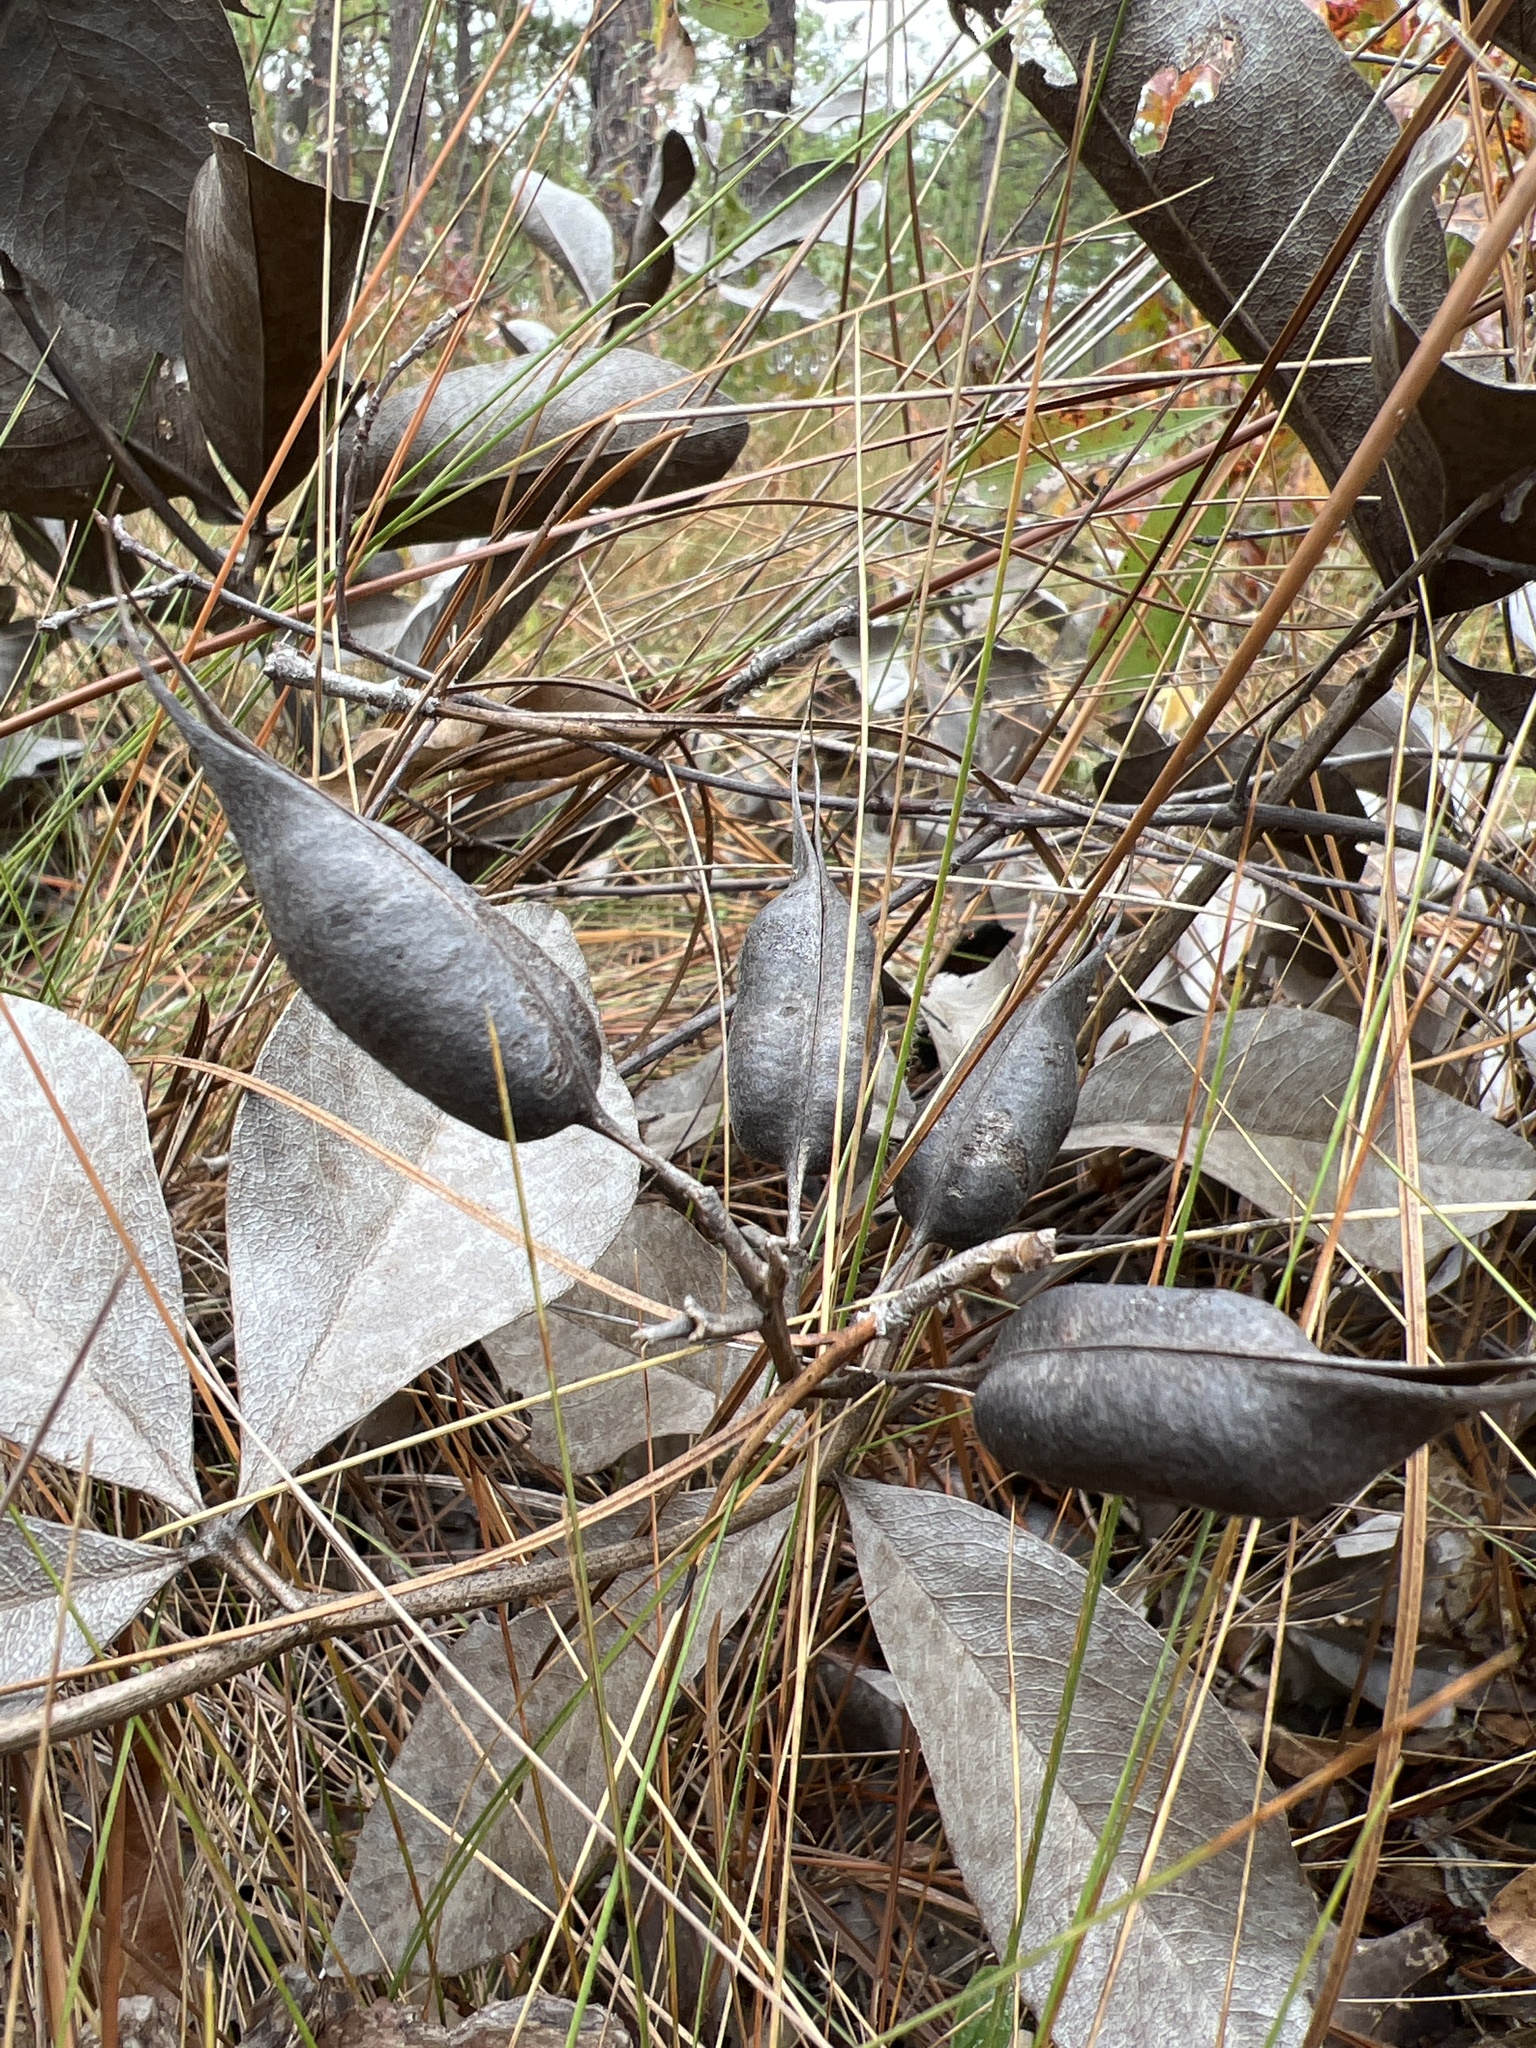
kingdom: Plantae
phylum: Tracheophyta
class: Magnoliopsida
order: Fabales
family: Fabaceae
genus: Baptisia
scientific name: Baptisia cinerea
